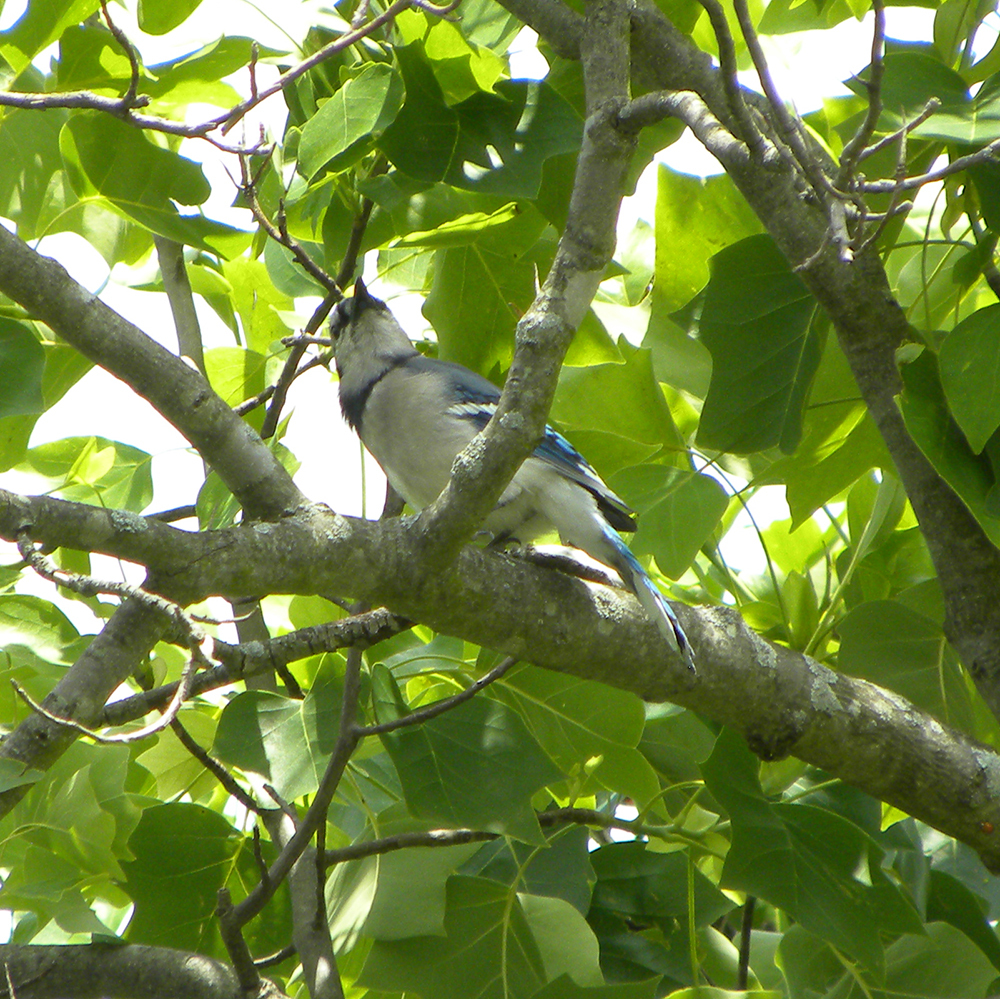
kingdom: Animalia
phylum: Chordata
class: Aves
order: Passeriformes
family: Corvidae
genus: Cyanocitta
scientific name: Cyanocitta cristata
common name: Blue jay
